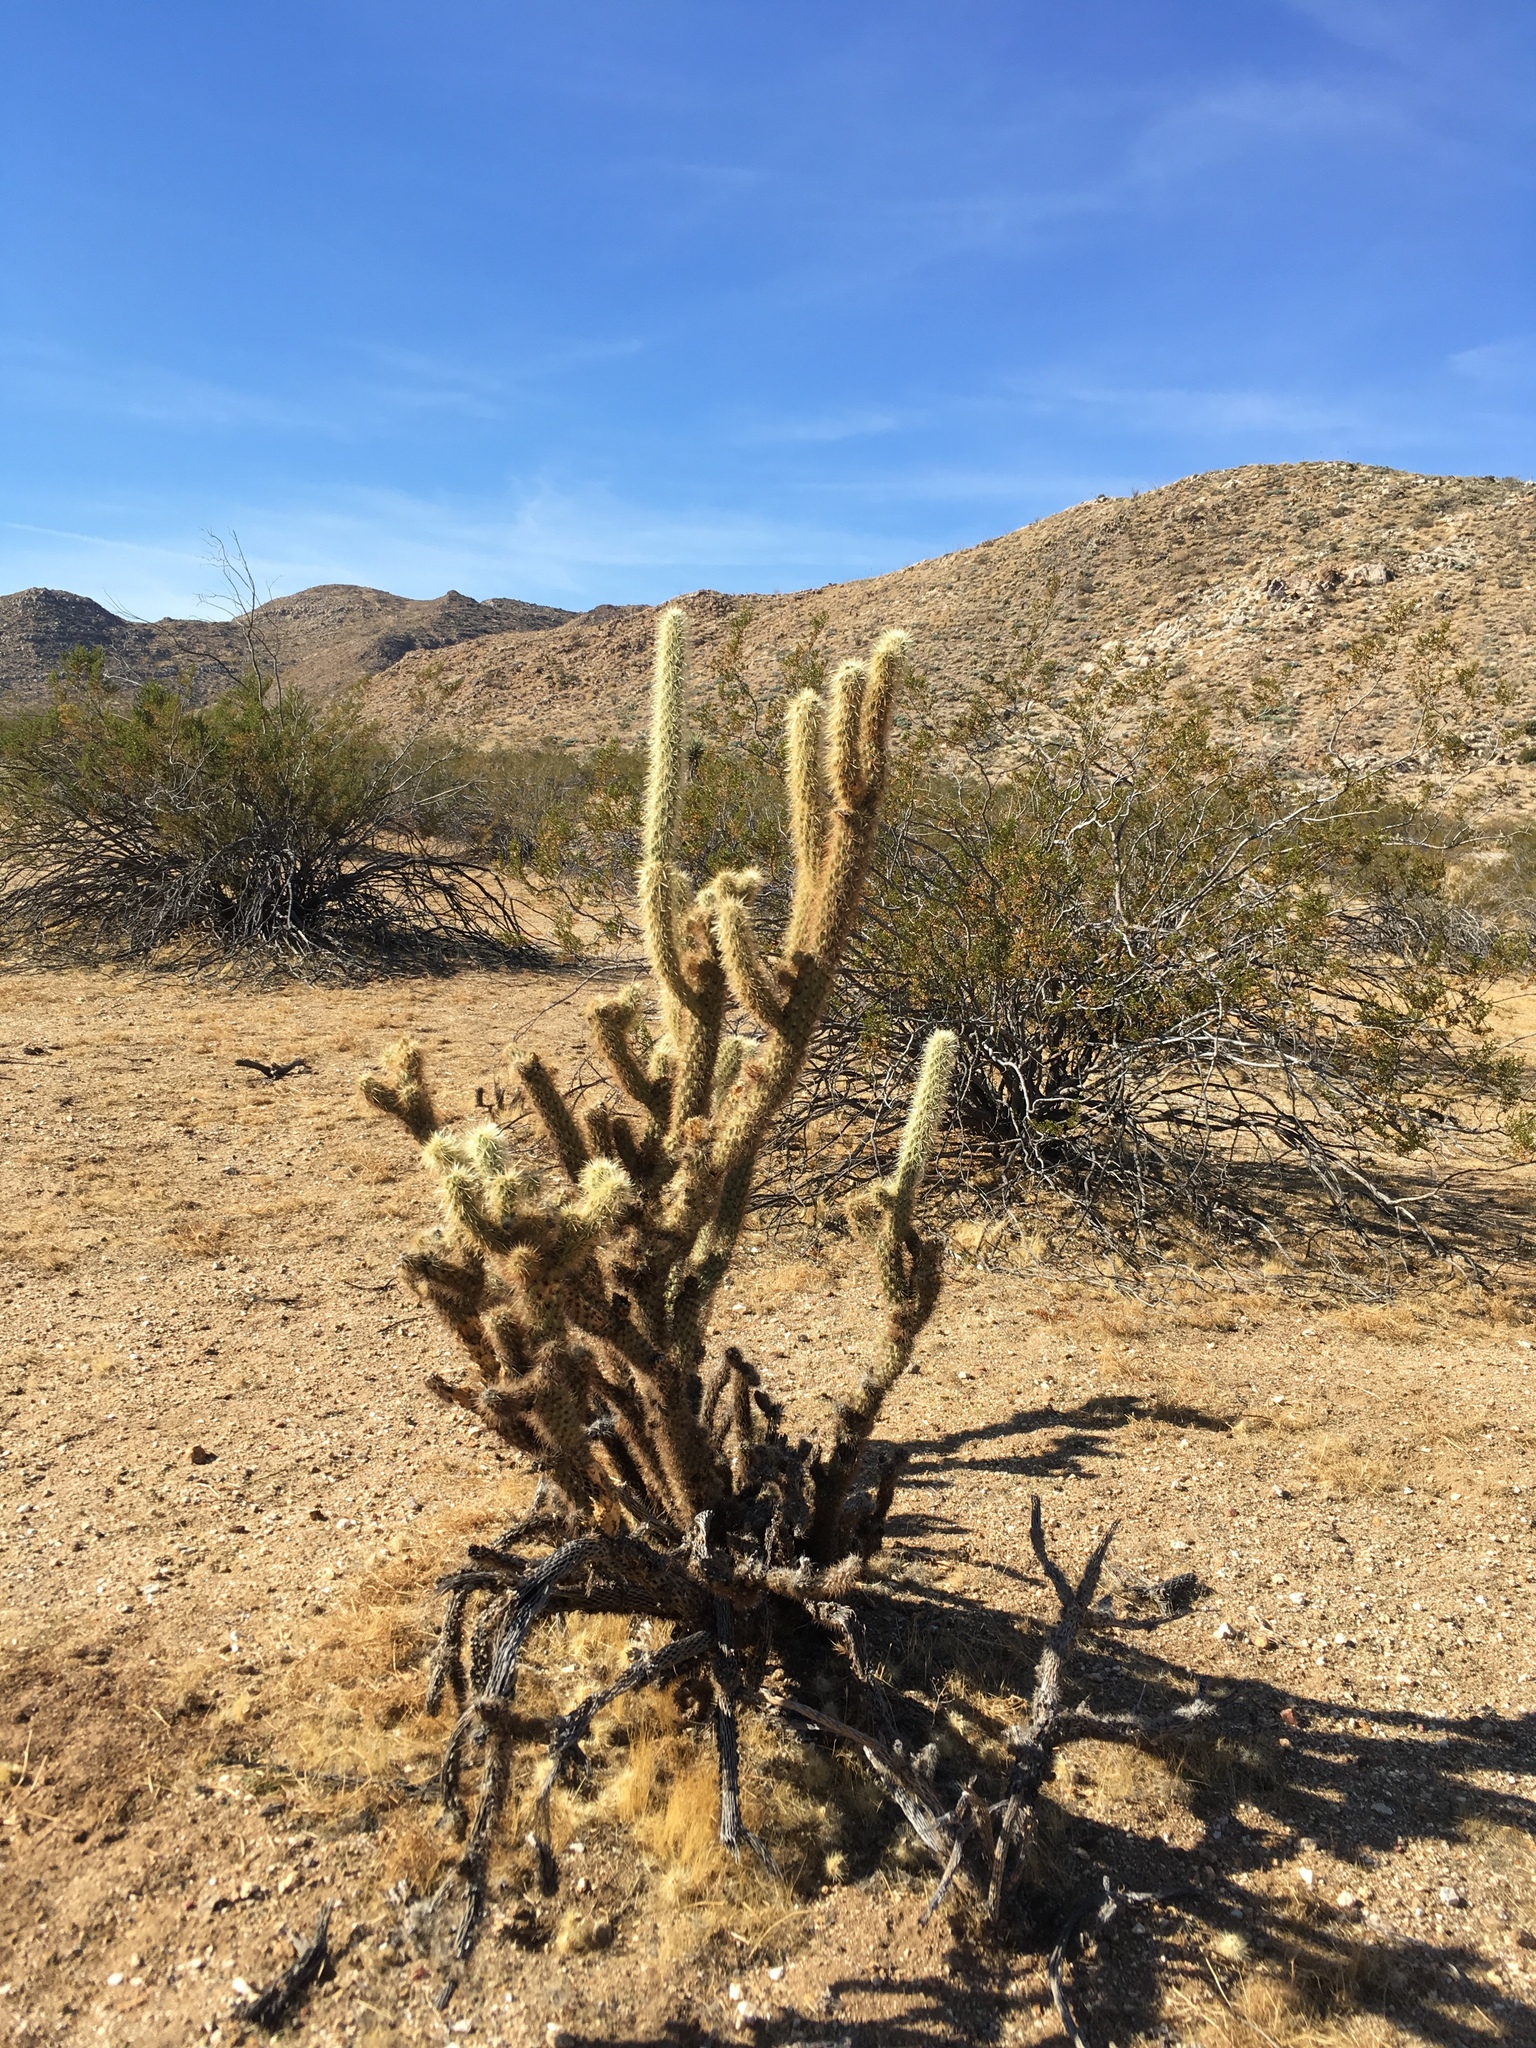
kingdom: Plantae
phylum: Tracheophyta
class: Magnoliopsida
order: Caryophyllales
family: Cactaceae
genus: Cylindropuntia
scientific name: Cylindropuntia ganderi
